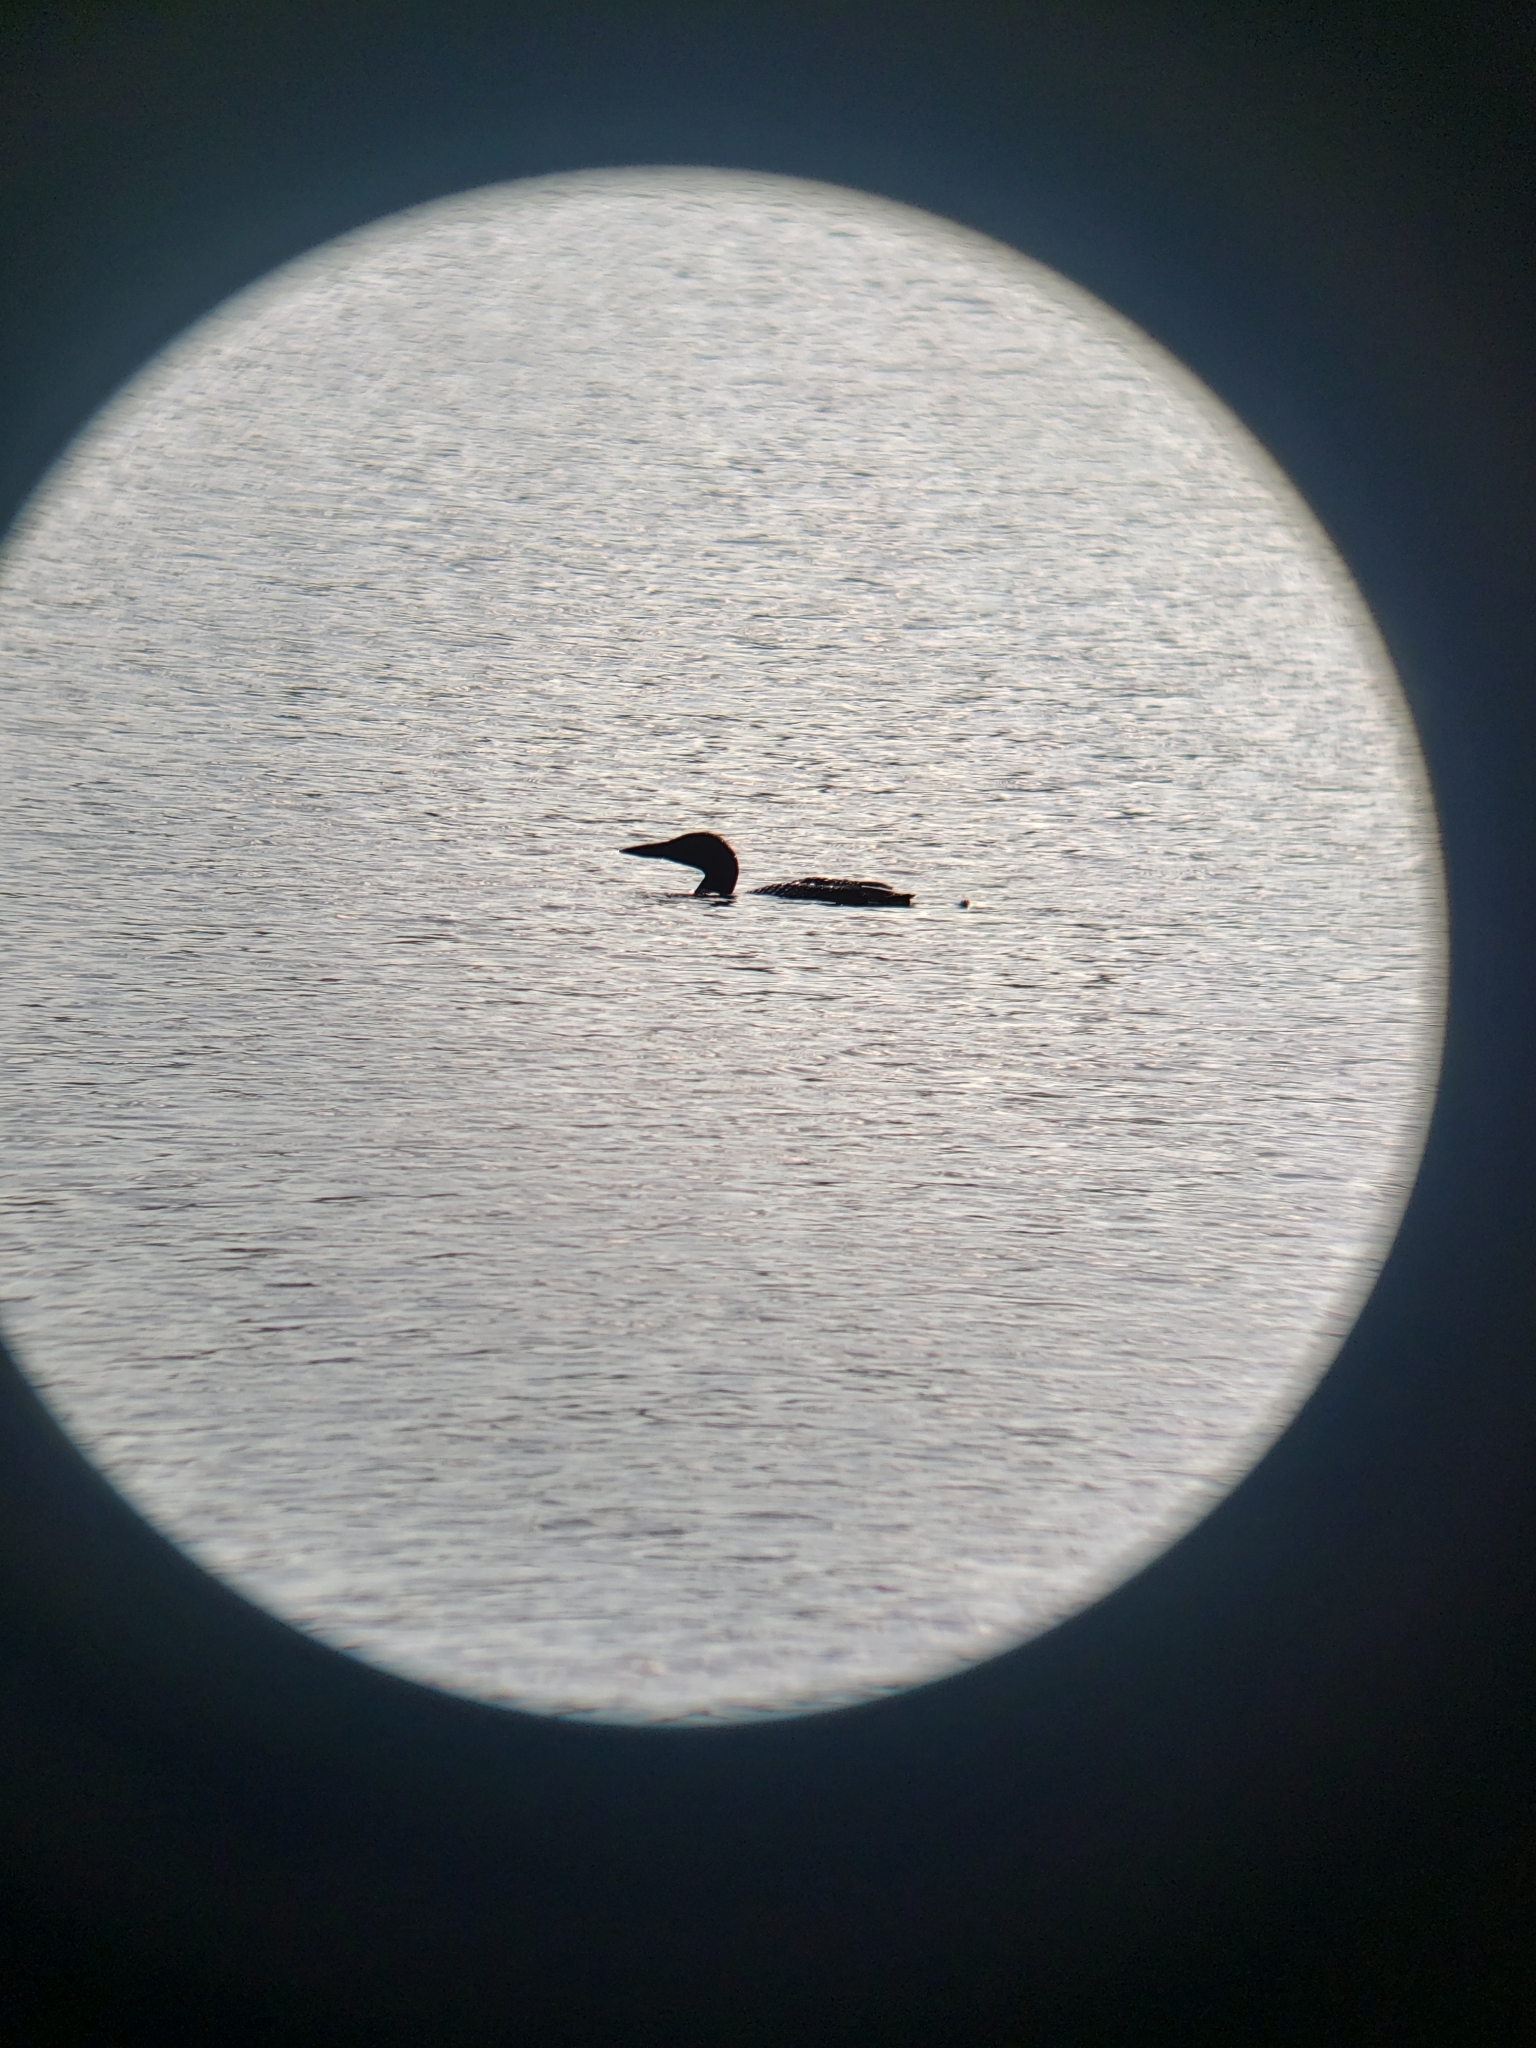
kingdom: Animalia
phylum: Chordata
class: Aves
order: Gaviiformes
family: Gaviidae
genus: Gavia
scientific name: Gavia immer
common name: Common loon
